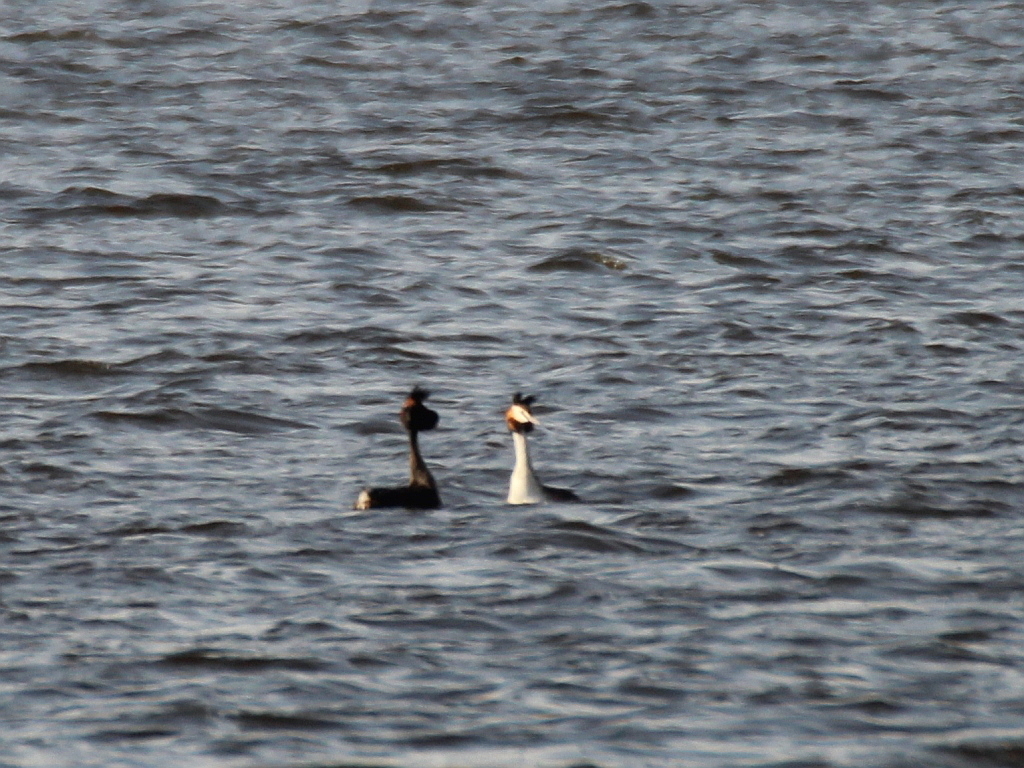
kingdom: Animalia
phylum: Chordata
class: Aves
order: Podicipediformes
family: Podicipedidae
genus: Podiceps
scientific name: Podiceps cristatus
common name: Great crested grebe
